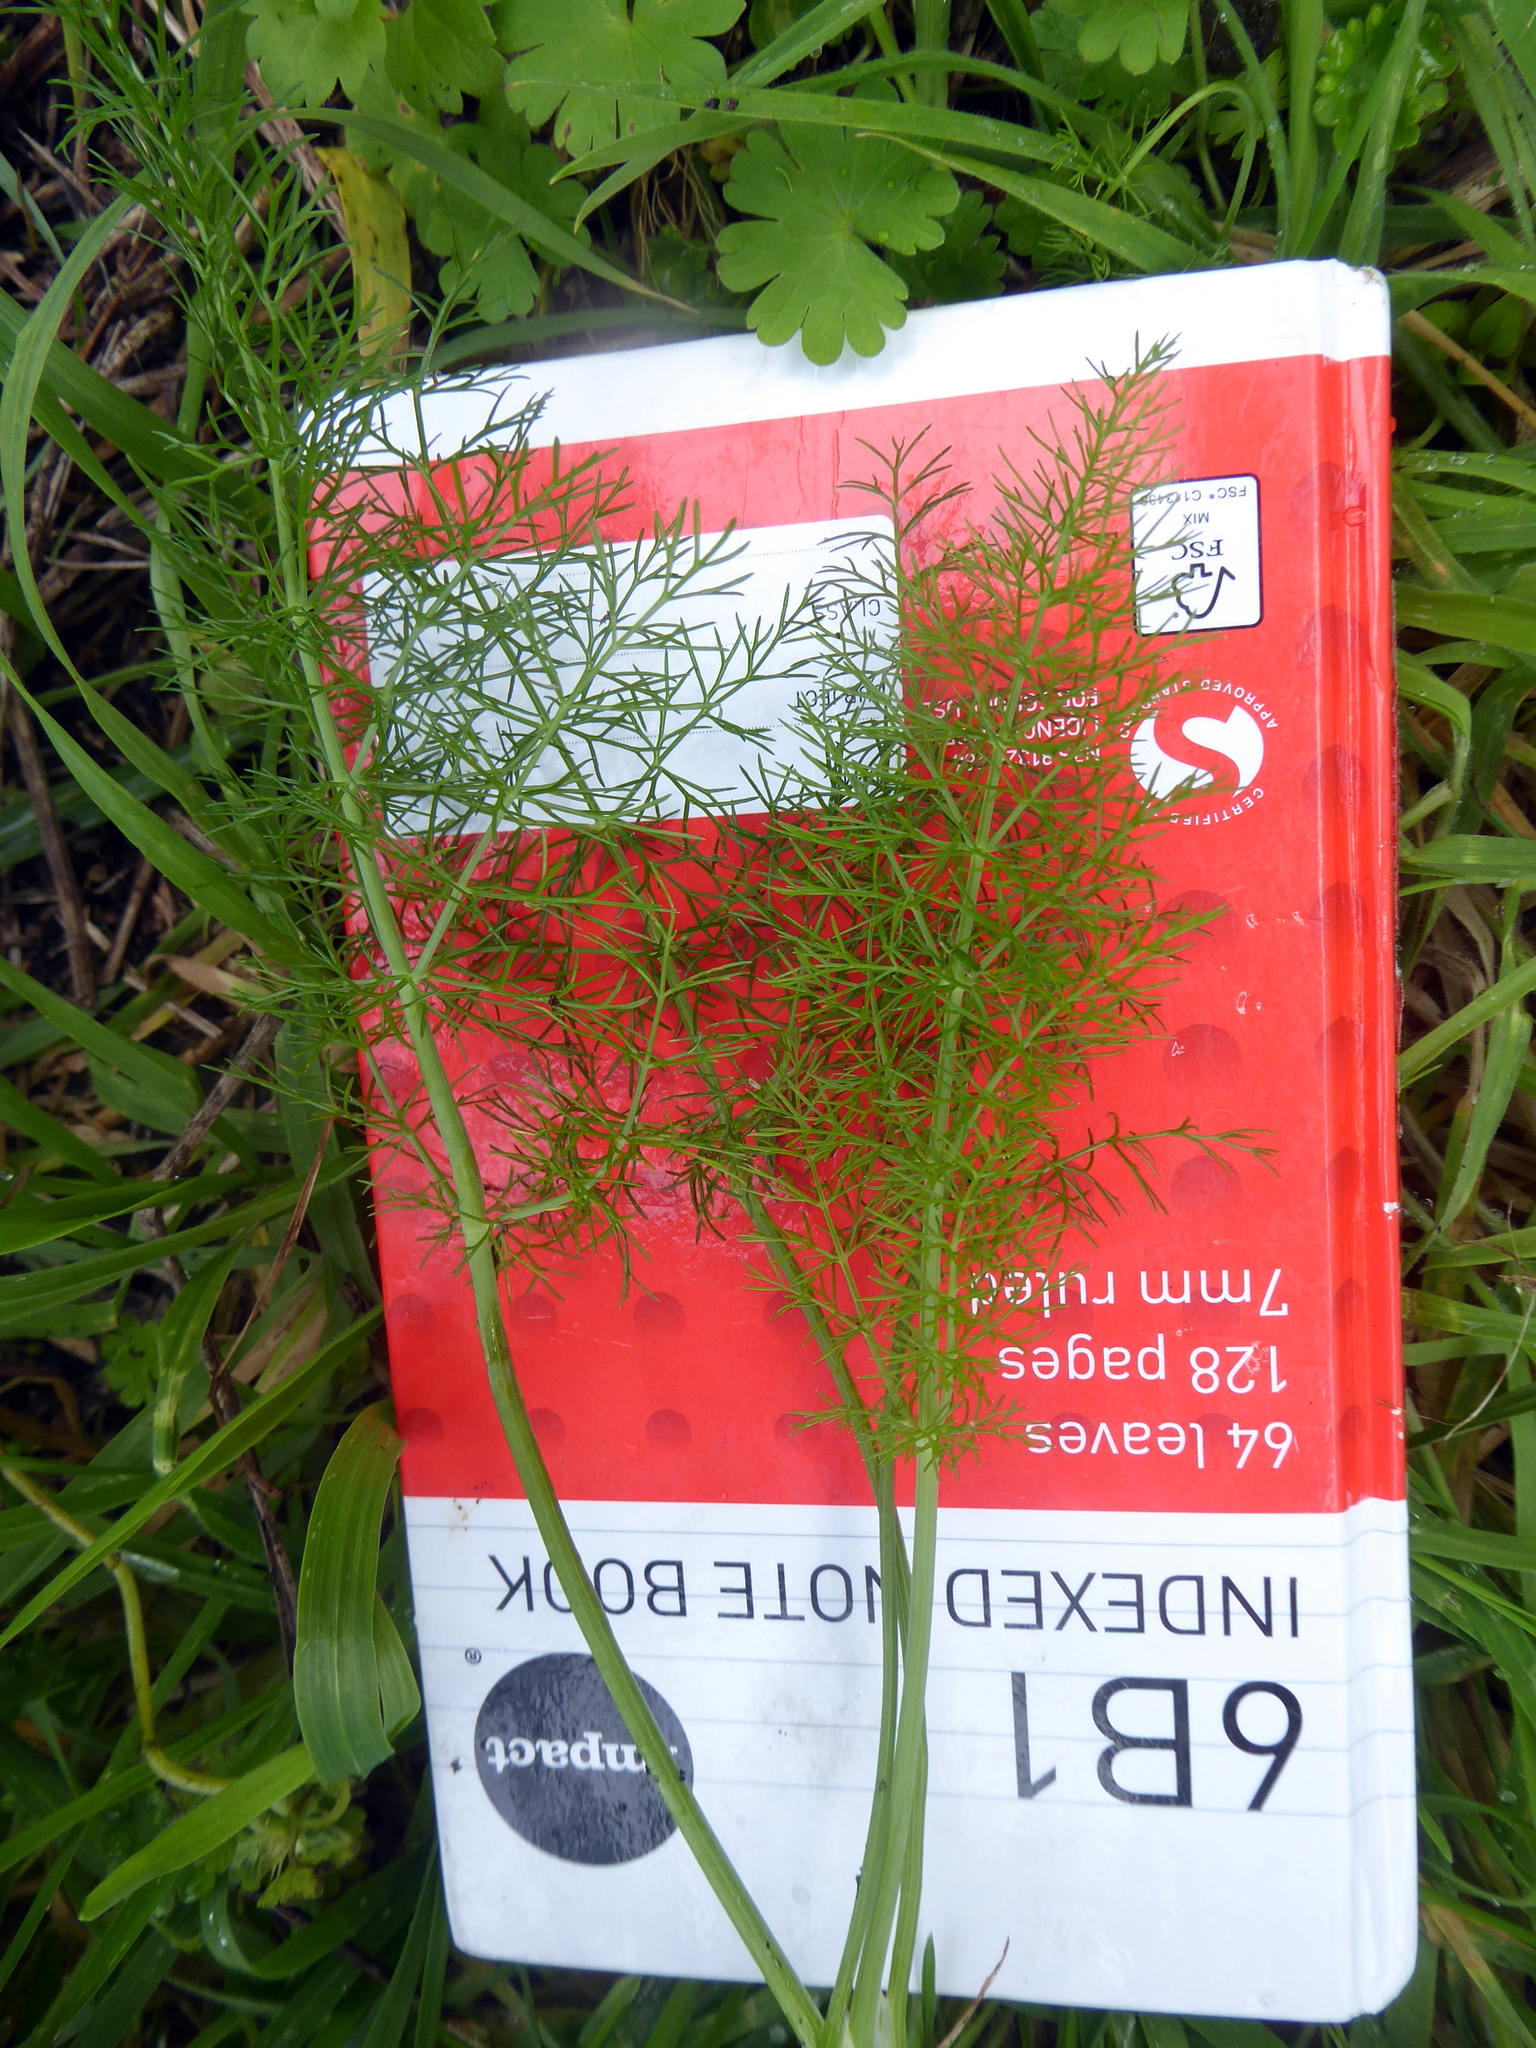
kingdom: Plantae
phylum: Tracheophyta
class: Magnoliopsida
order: Apiales
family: Apiaceae
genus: Foeniculum
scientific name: Foeniculum vulgare
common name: Fennel
